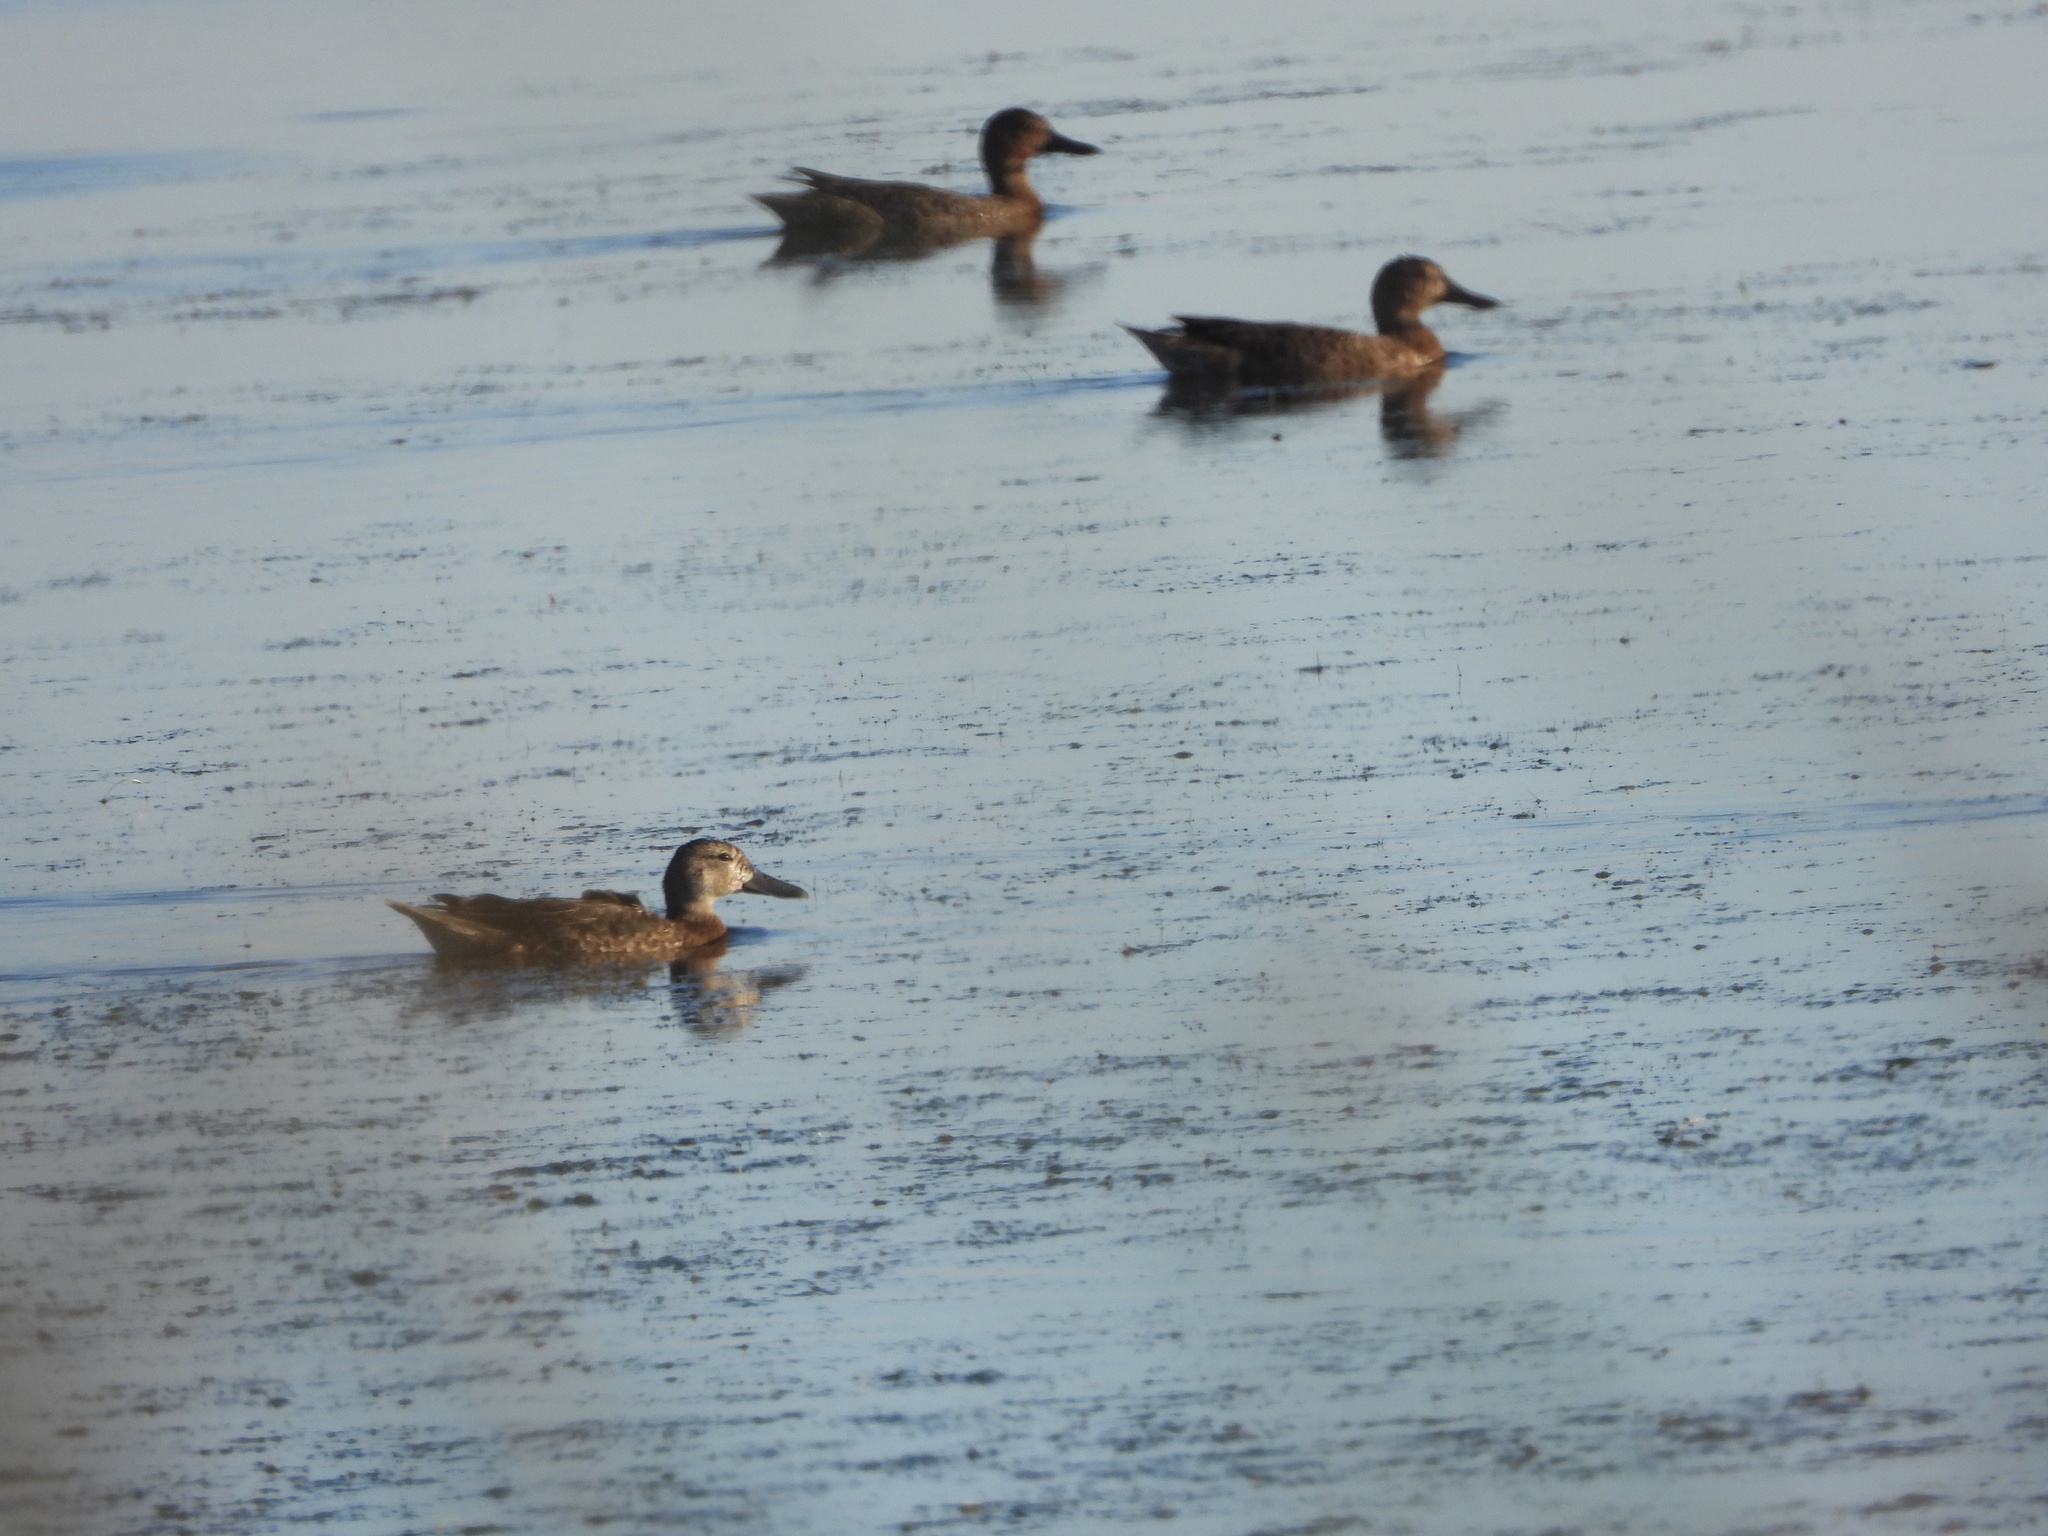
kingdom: Animalia
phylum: Chordata
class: Aves
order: Anseriformes
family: Anatidae
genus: Spatula
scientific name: Spatula discors
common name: Blue-winged teal
